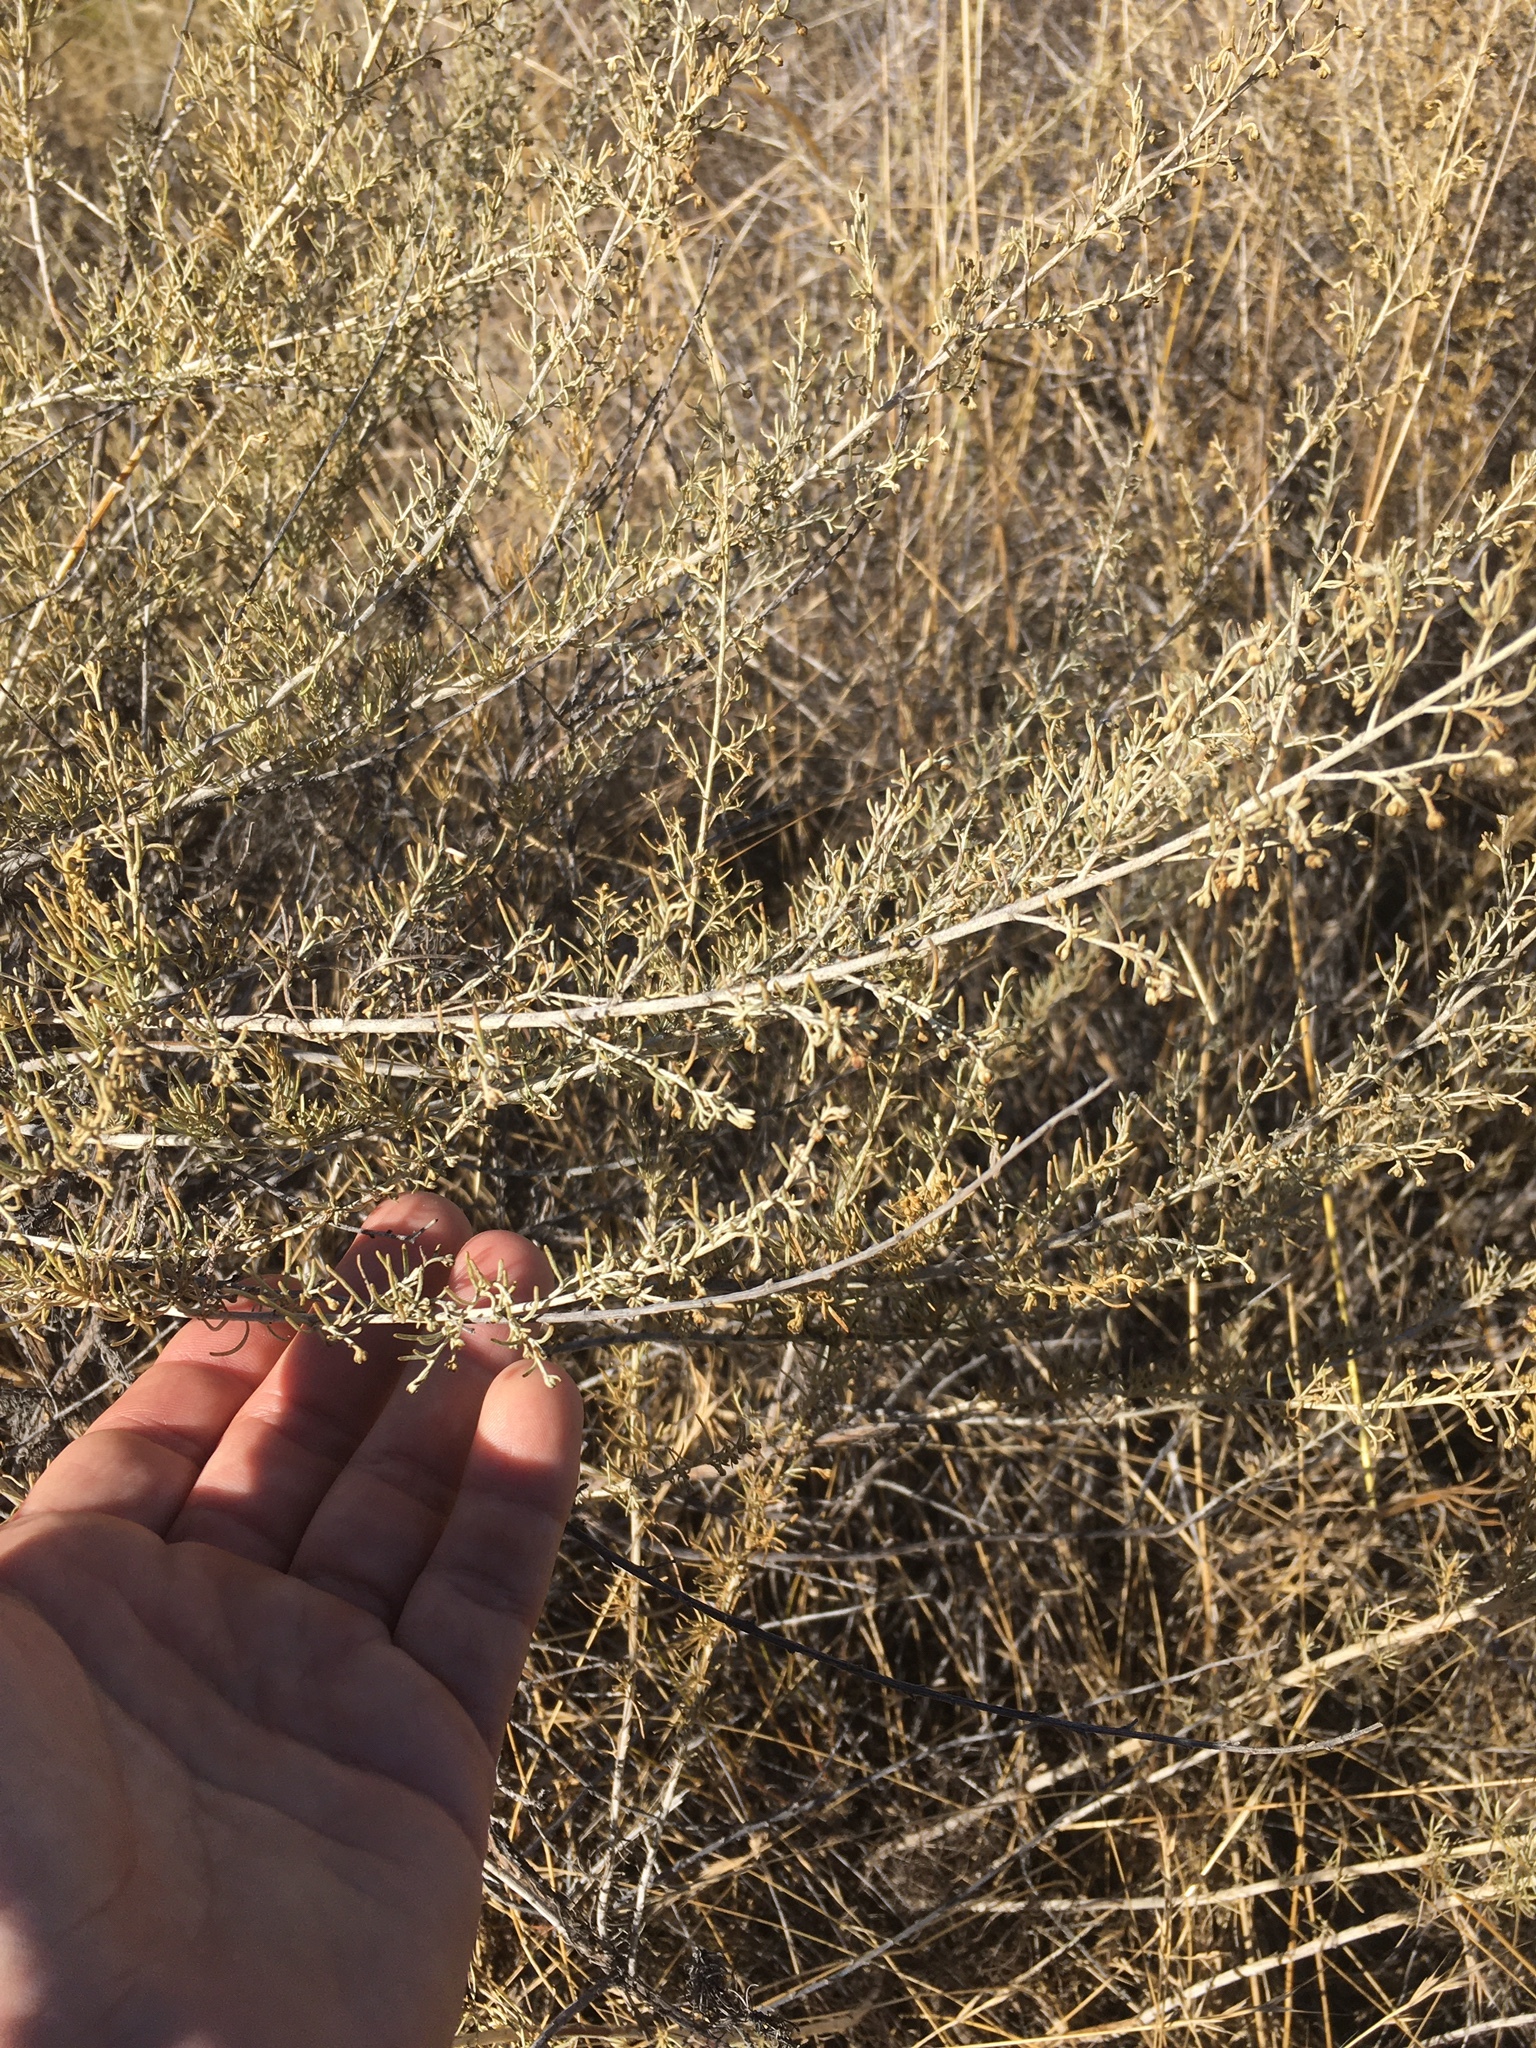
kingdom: Plantae
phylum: Tracheophyta
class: Magnoliopsida
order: Asterales
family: Asteraceae
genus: Artemisia
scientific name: Artemisia californica
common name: California sagebrush
